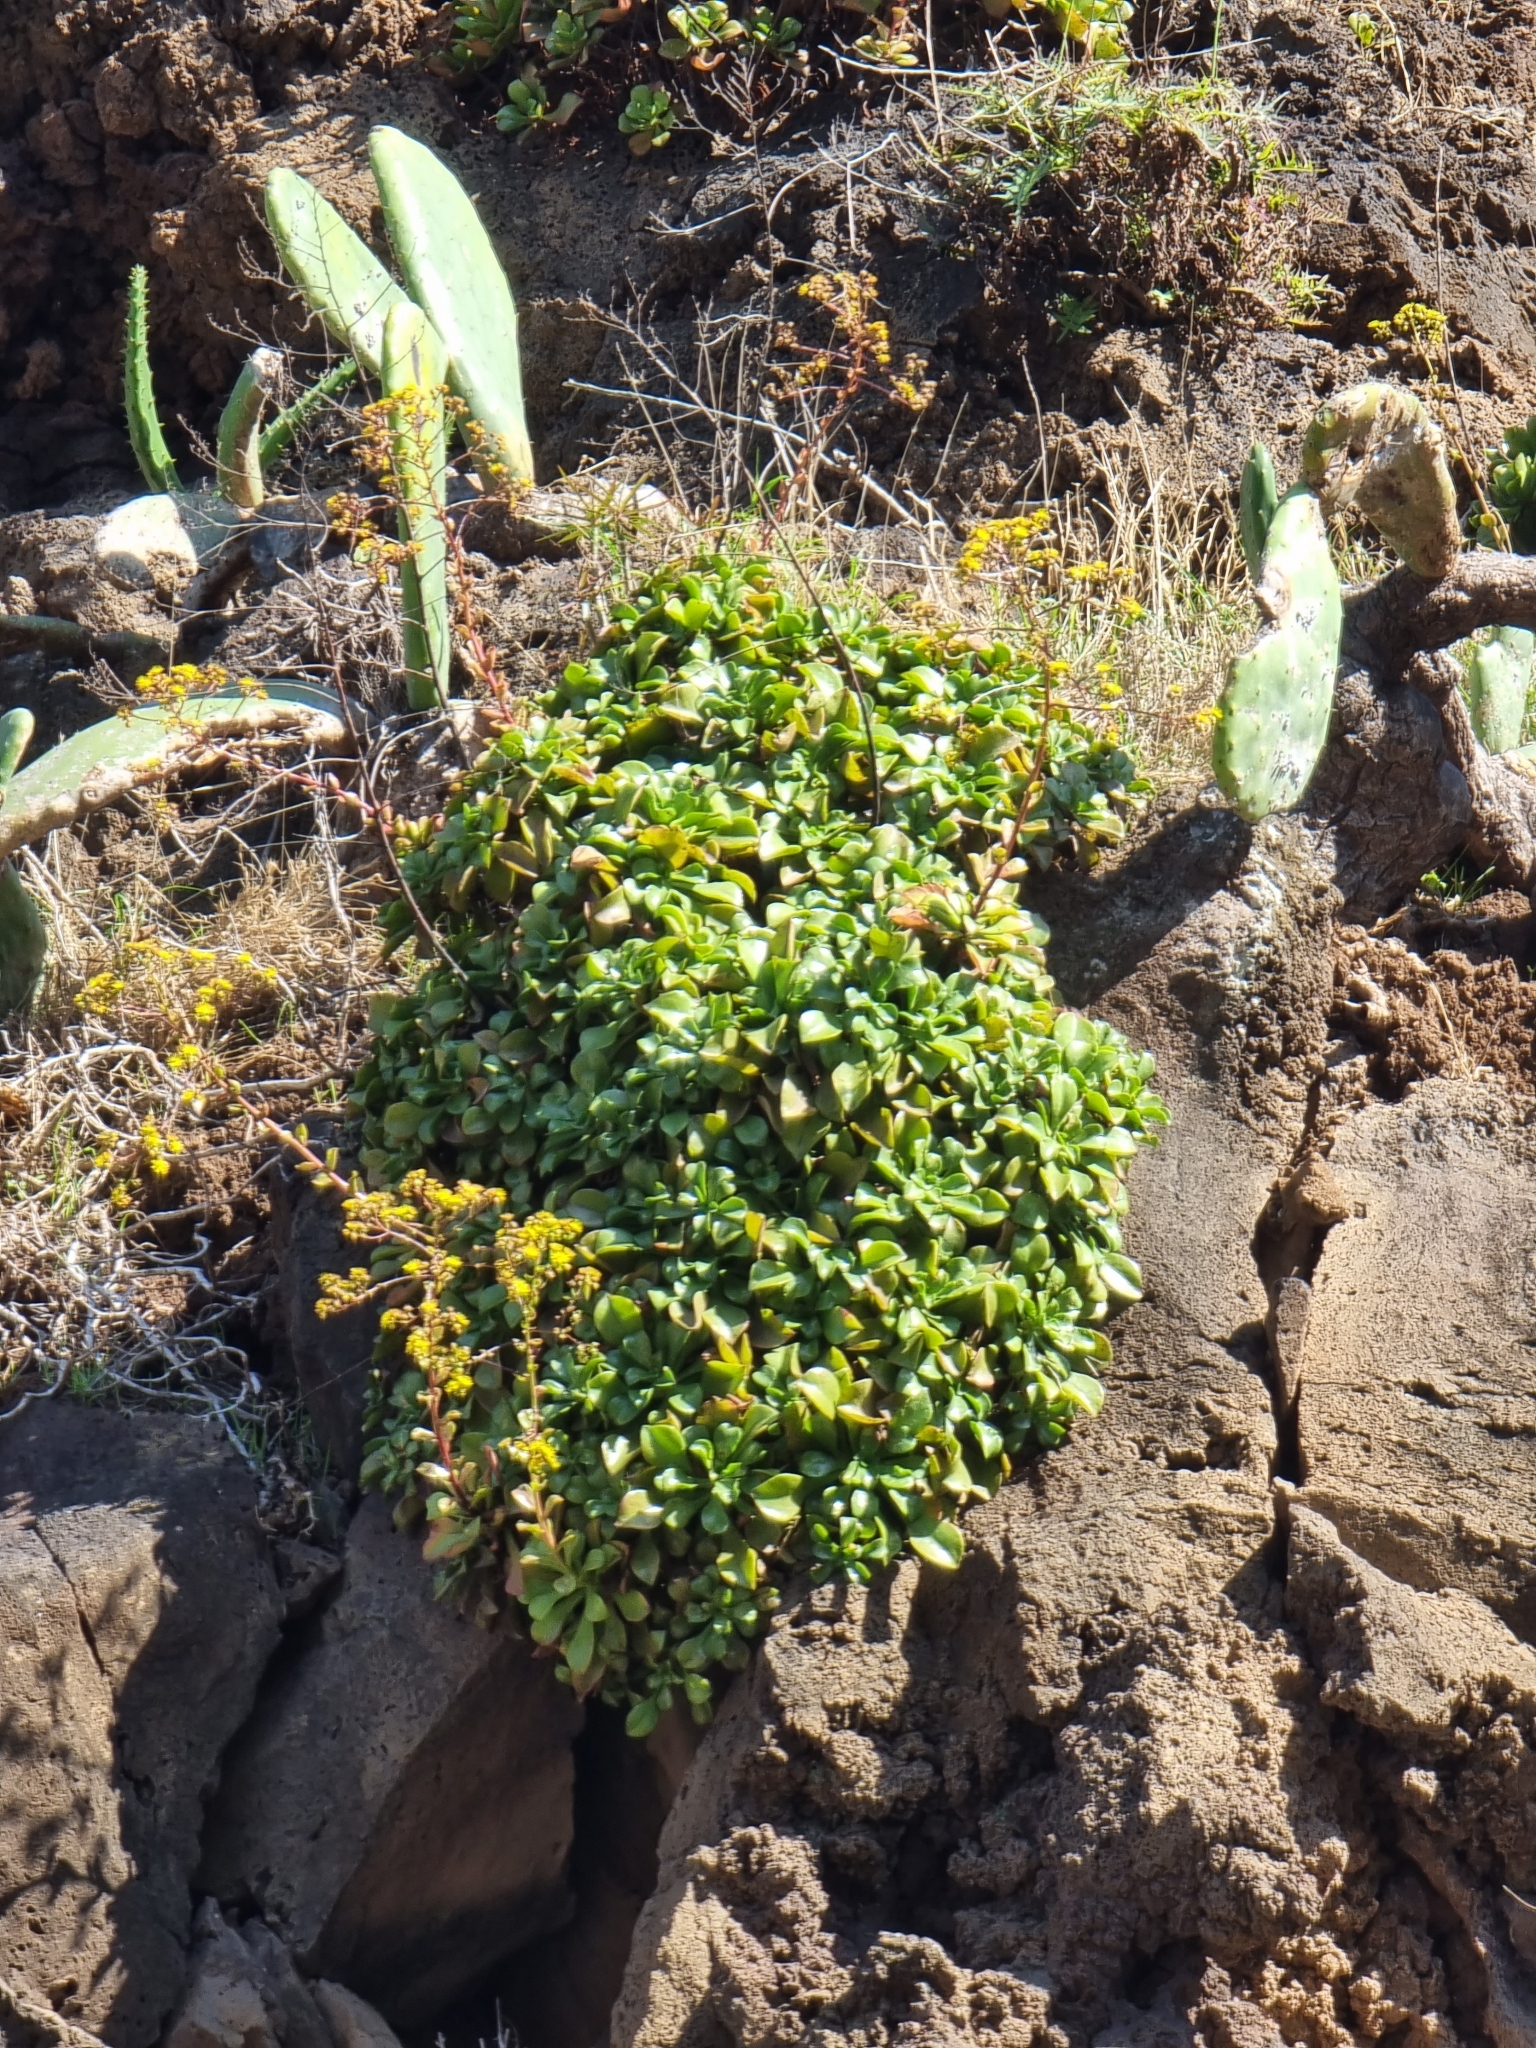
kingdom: Plantae
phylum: Tracheophyta
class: Magnoliopsida
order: Saxifragales
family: Crassulaceae
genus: Aeonium
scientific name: Aeonium glutinosum
